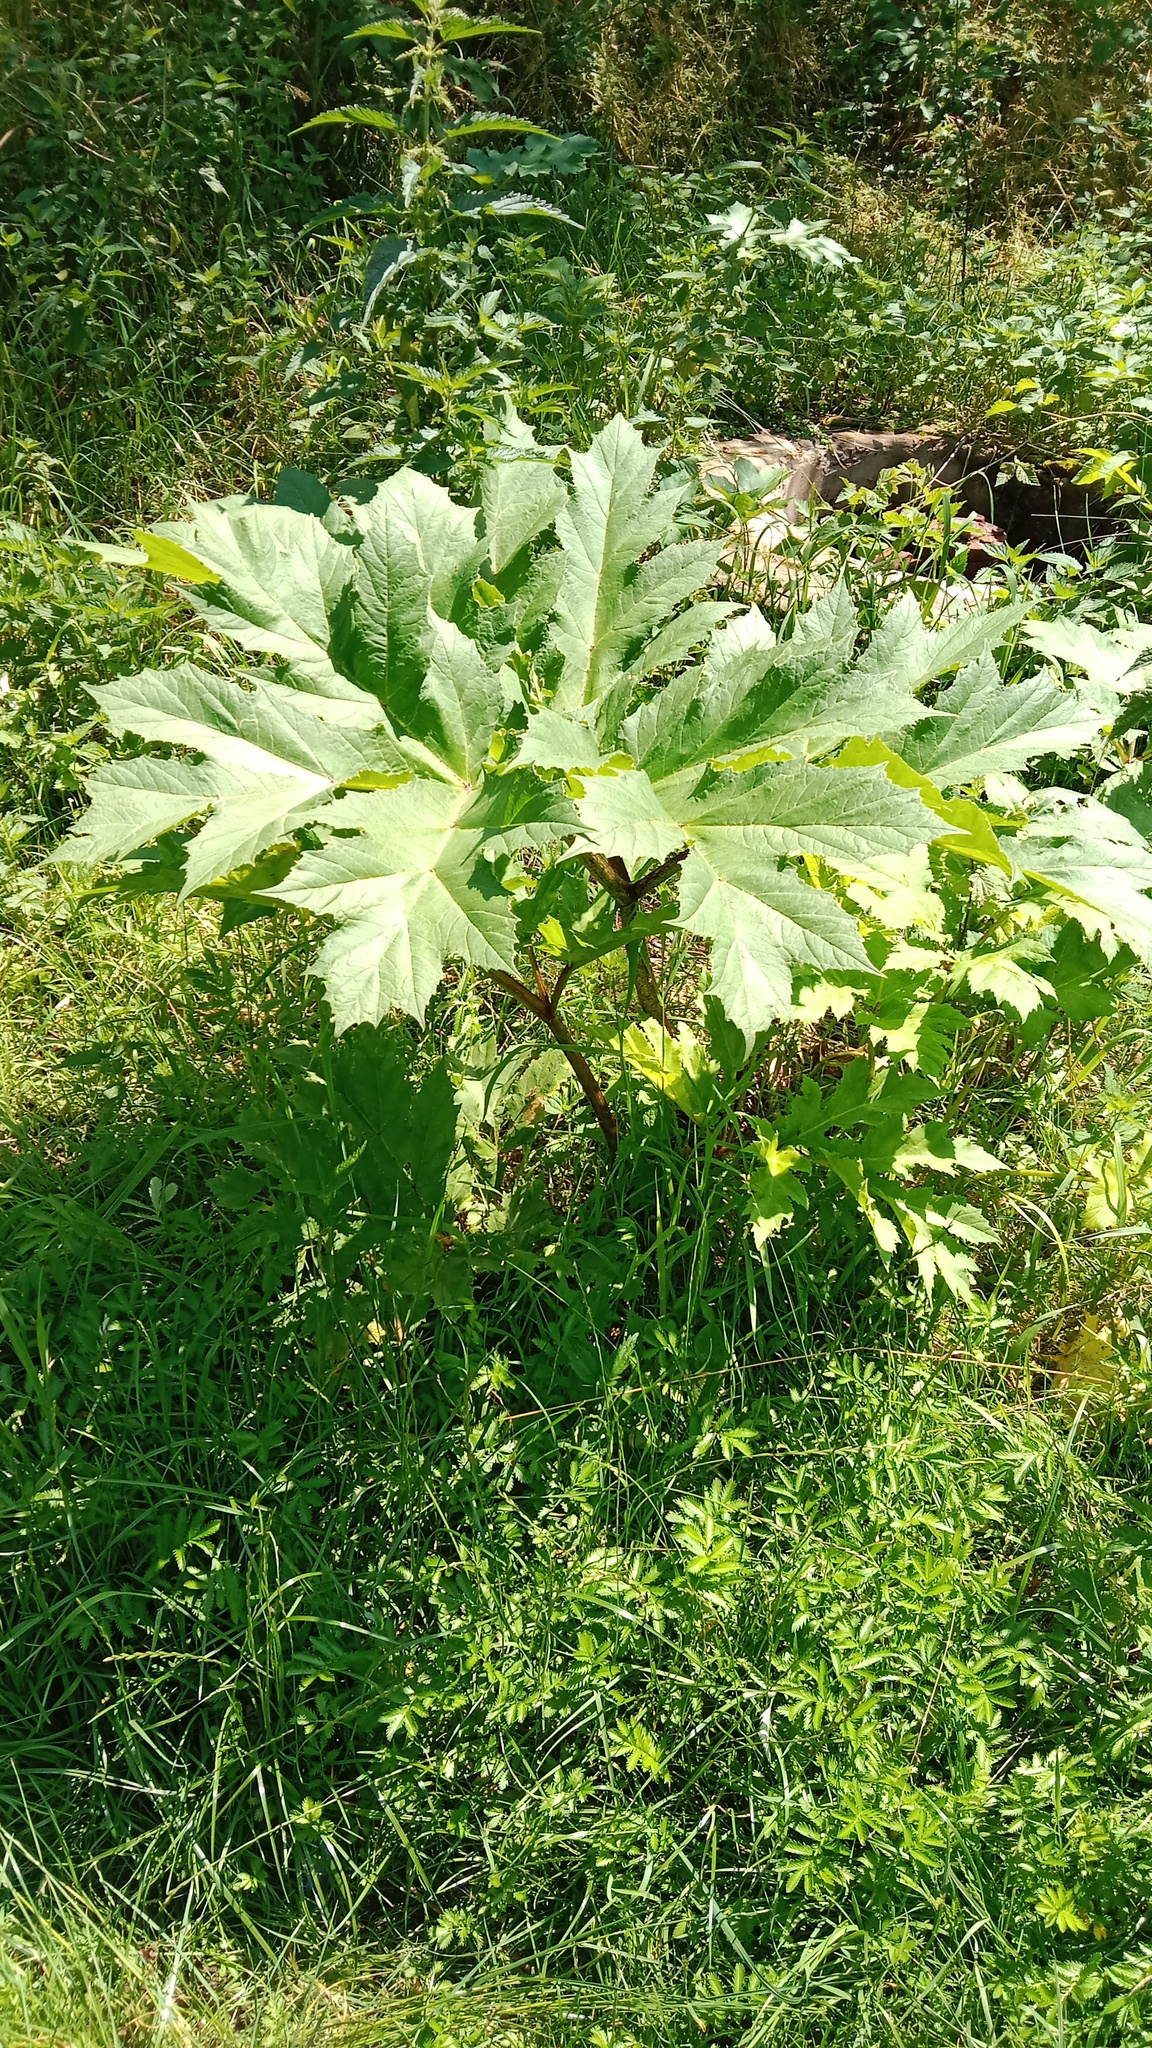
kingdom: Plantae
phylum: Tracheophyta
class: Magnoliopsida
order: Apiales
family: Apiaceae
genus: Heracleum
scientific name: Heracleum sosnowskyi
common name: Sosnowsky's hogweed
